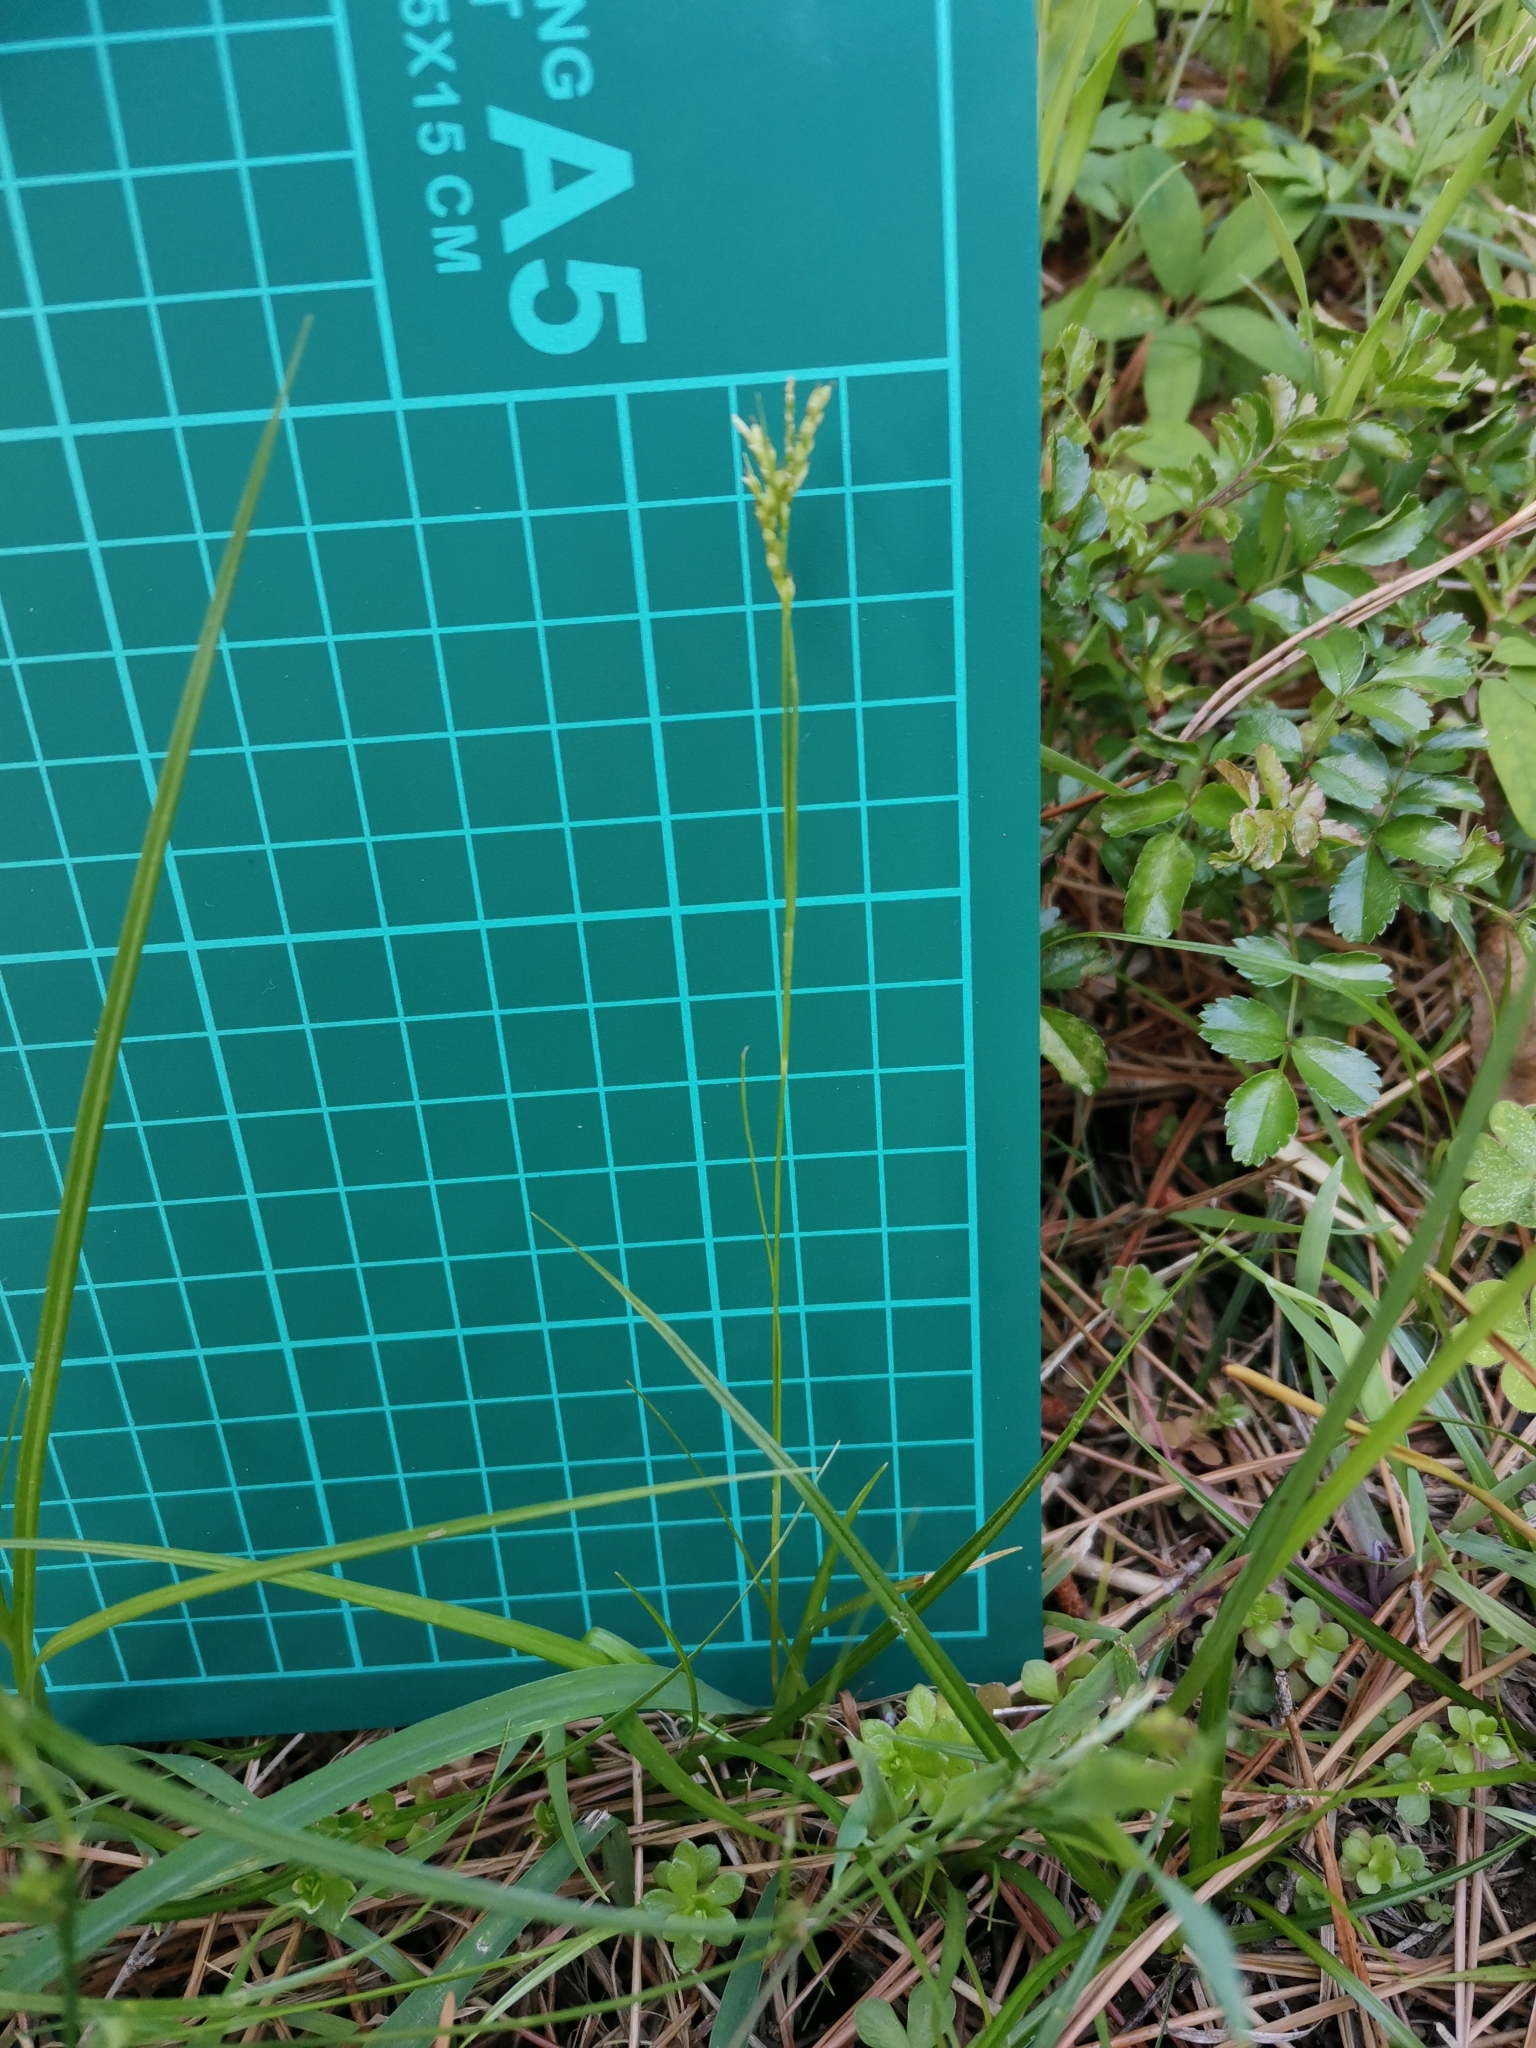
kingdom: Plantae
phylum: Tracheophyta
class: Liliopsida
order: Poales
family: Cyperaceae
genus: Carex
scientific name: Carex tristachya
